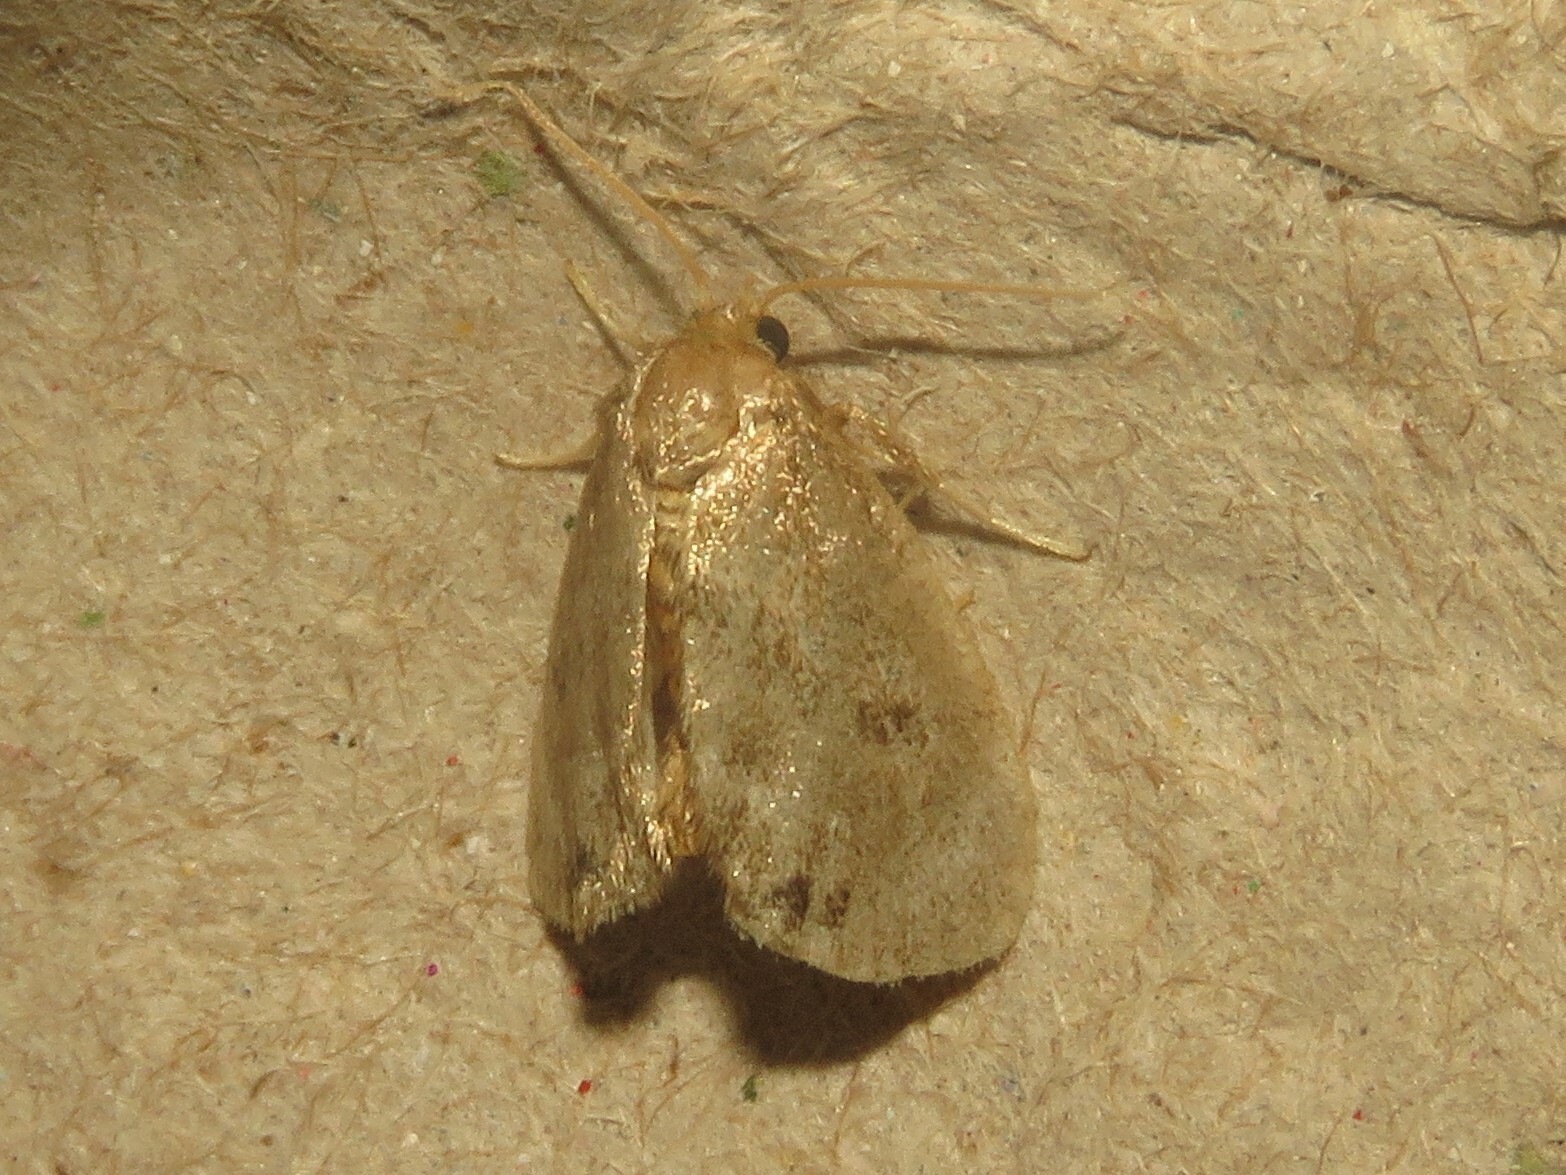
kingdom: Animalia
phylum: Arthropoda
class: Insecta
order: Lepidoptera
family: Limacodidae
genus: Packardia
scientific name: Packardia elegans
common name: Elegant tailed slug moth
